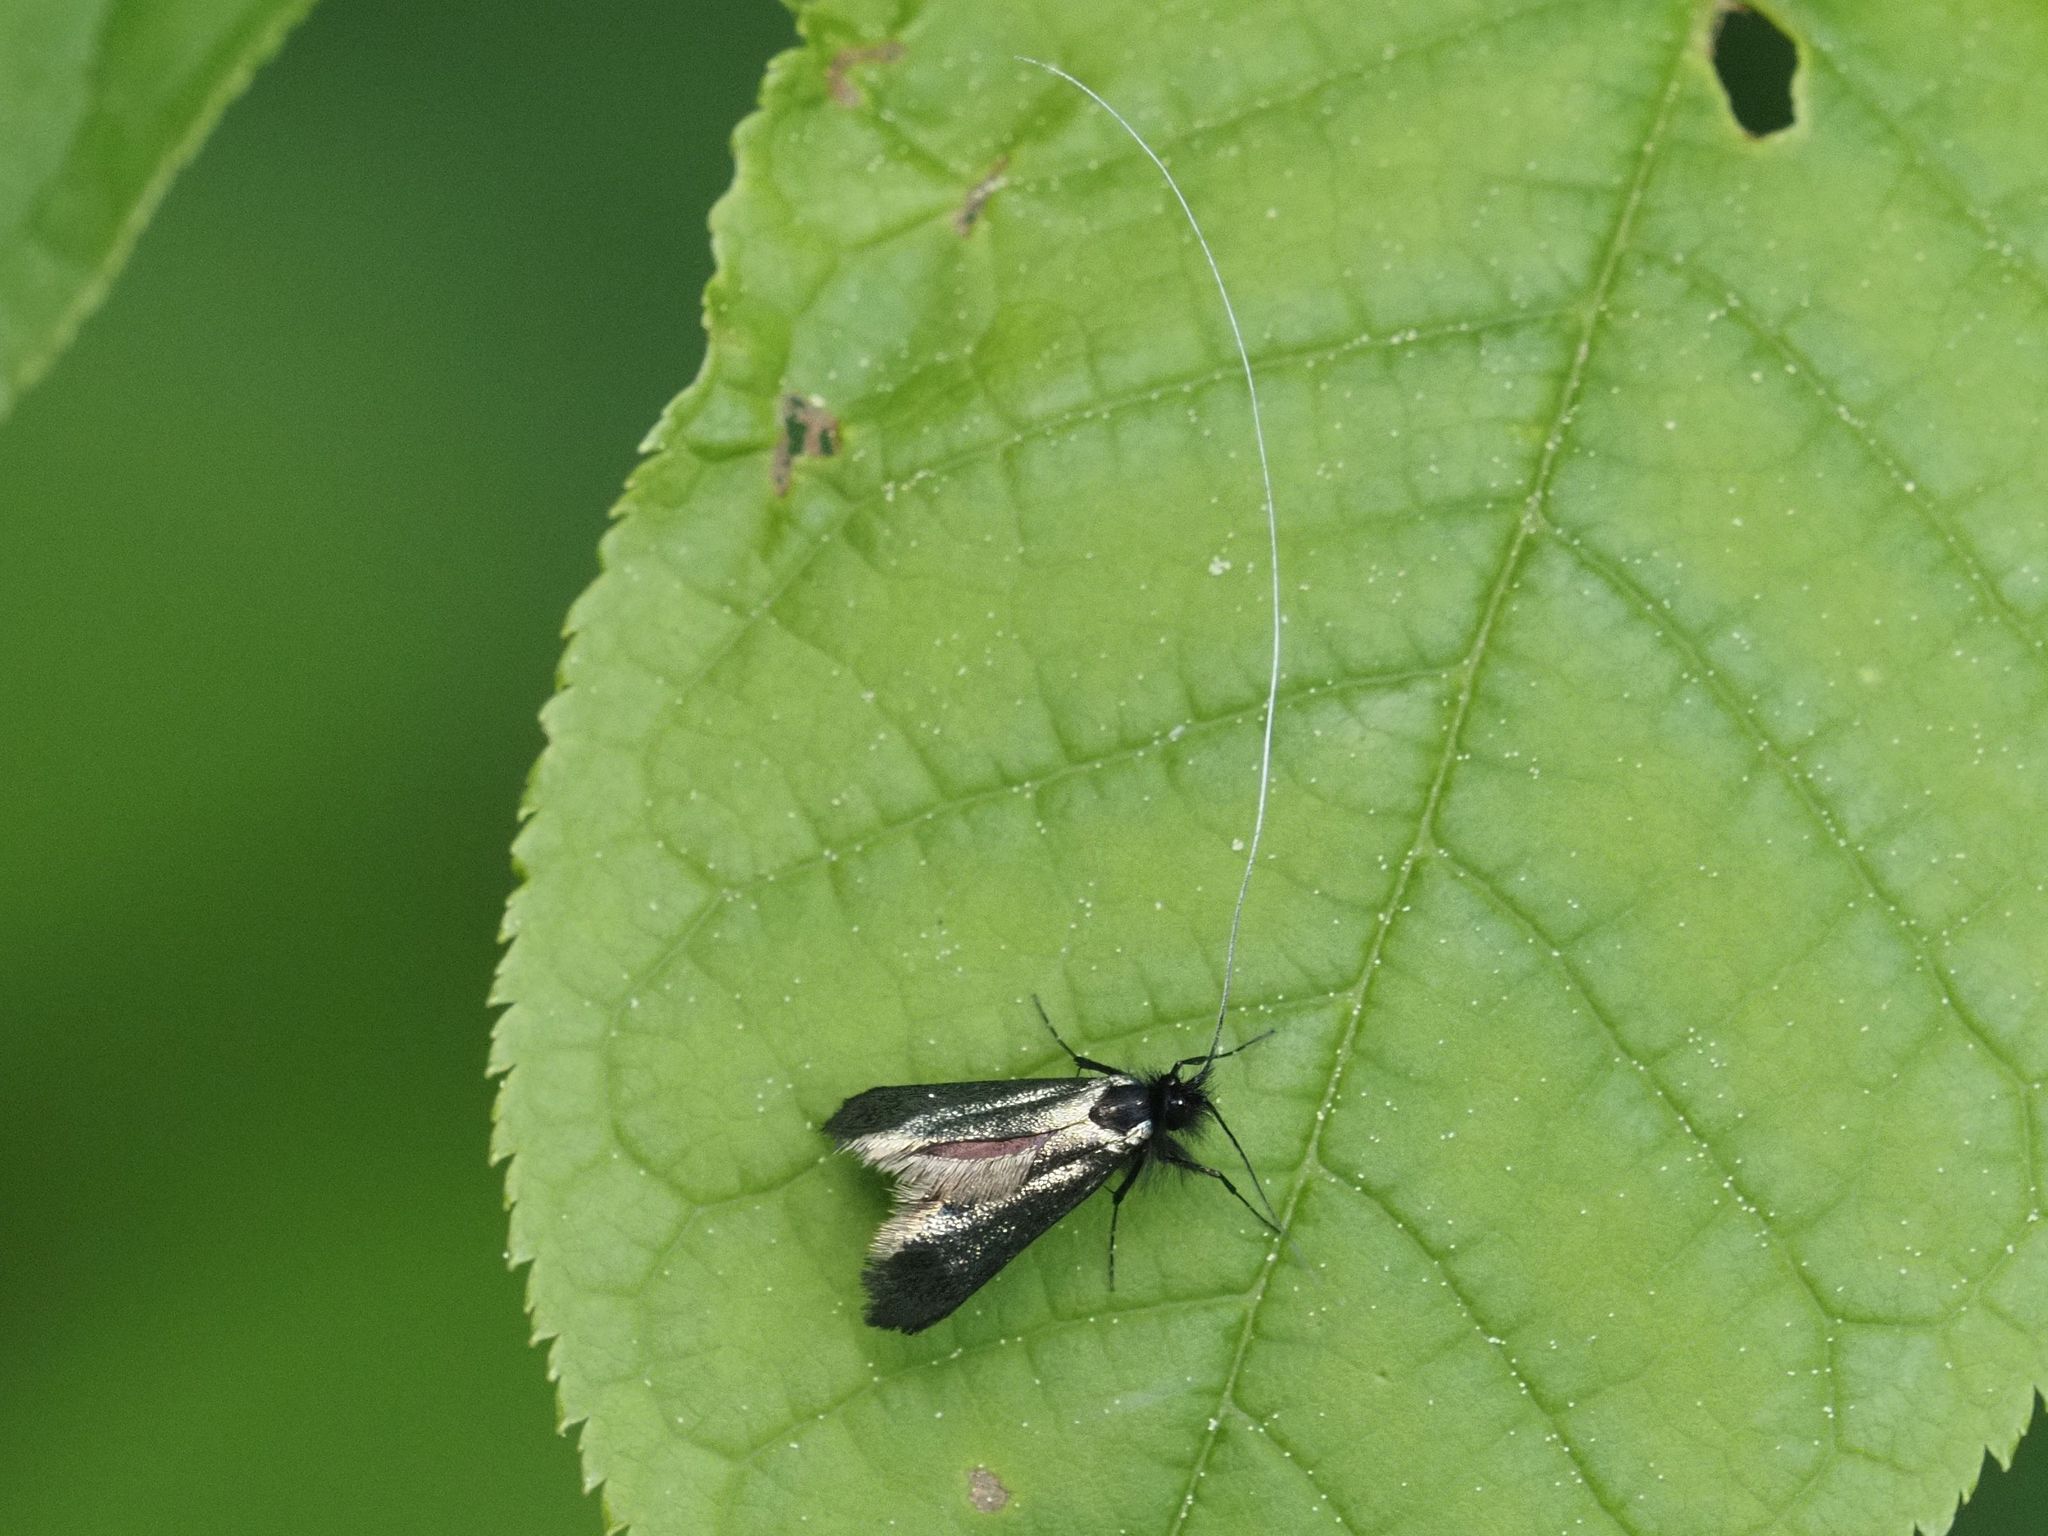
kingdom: Animalia
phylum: Arthropoda
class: Insecta
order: Lepidoptera
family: Adelidae
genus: Adela
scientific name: Adela viridella
